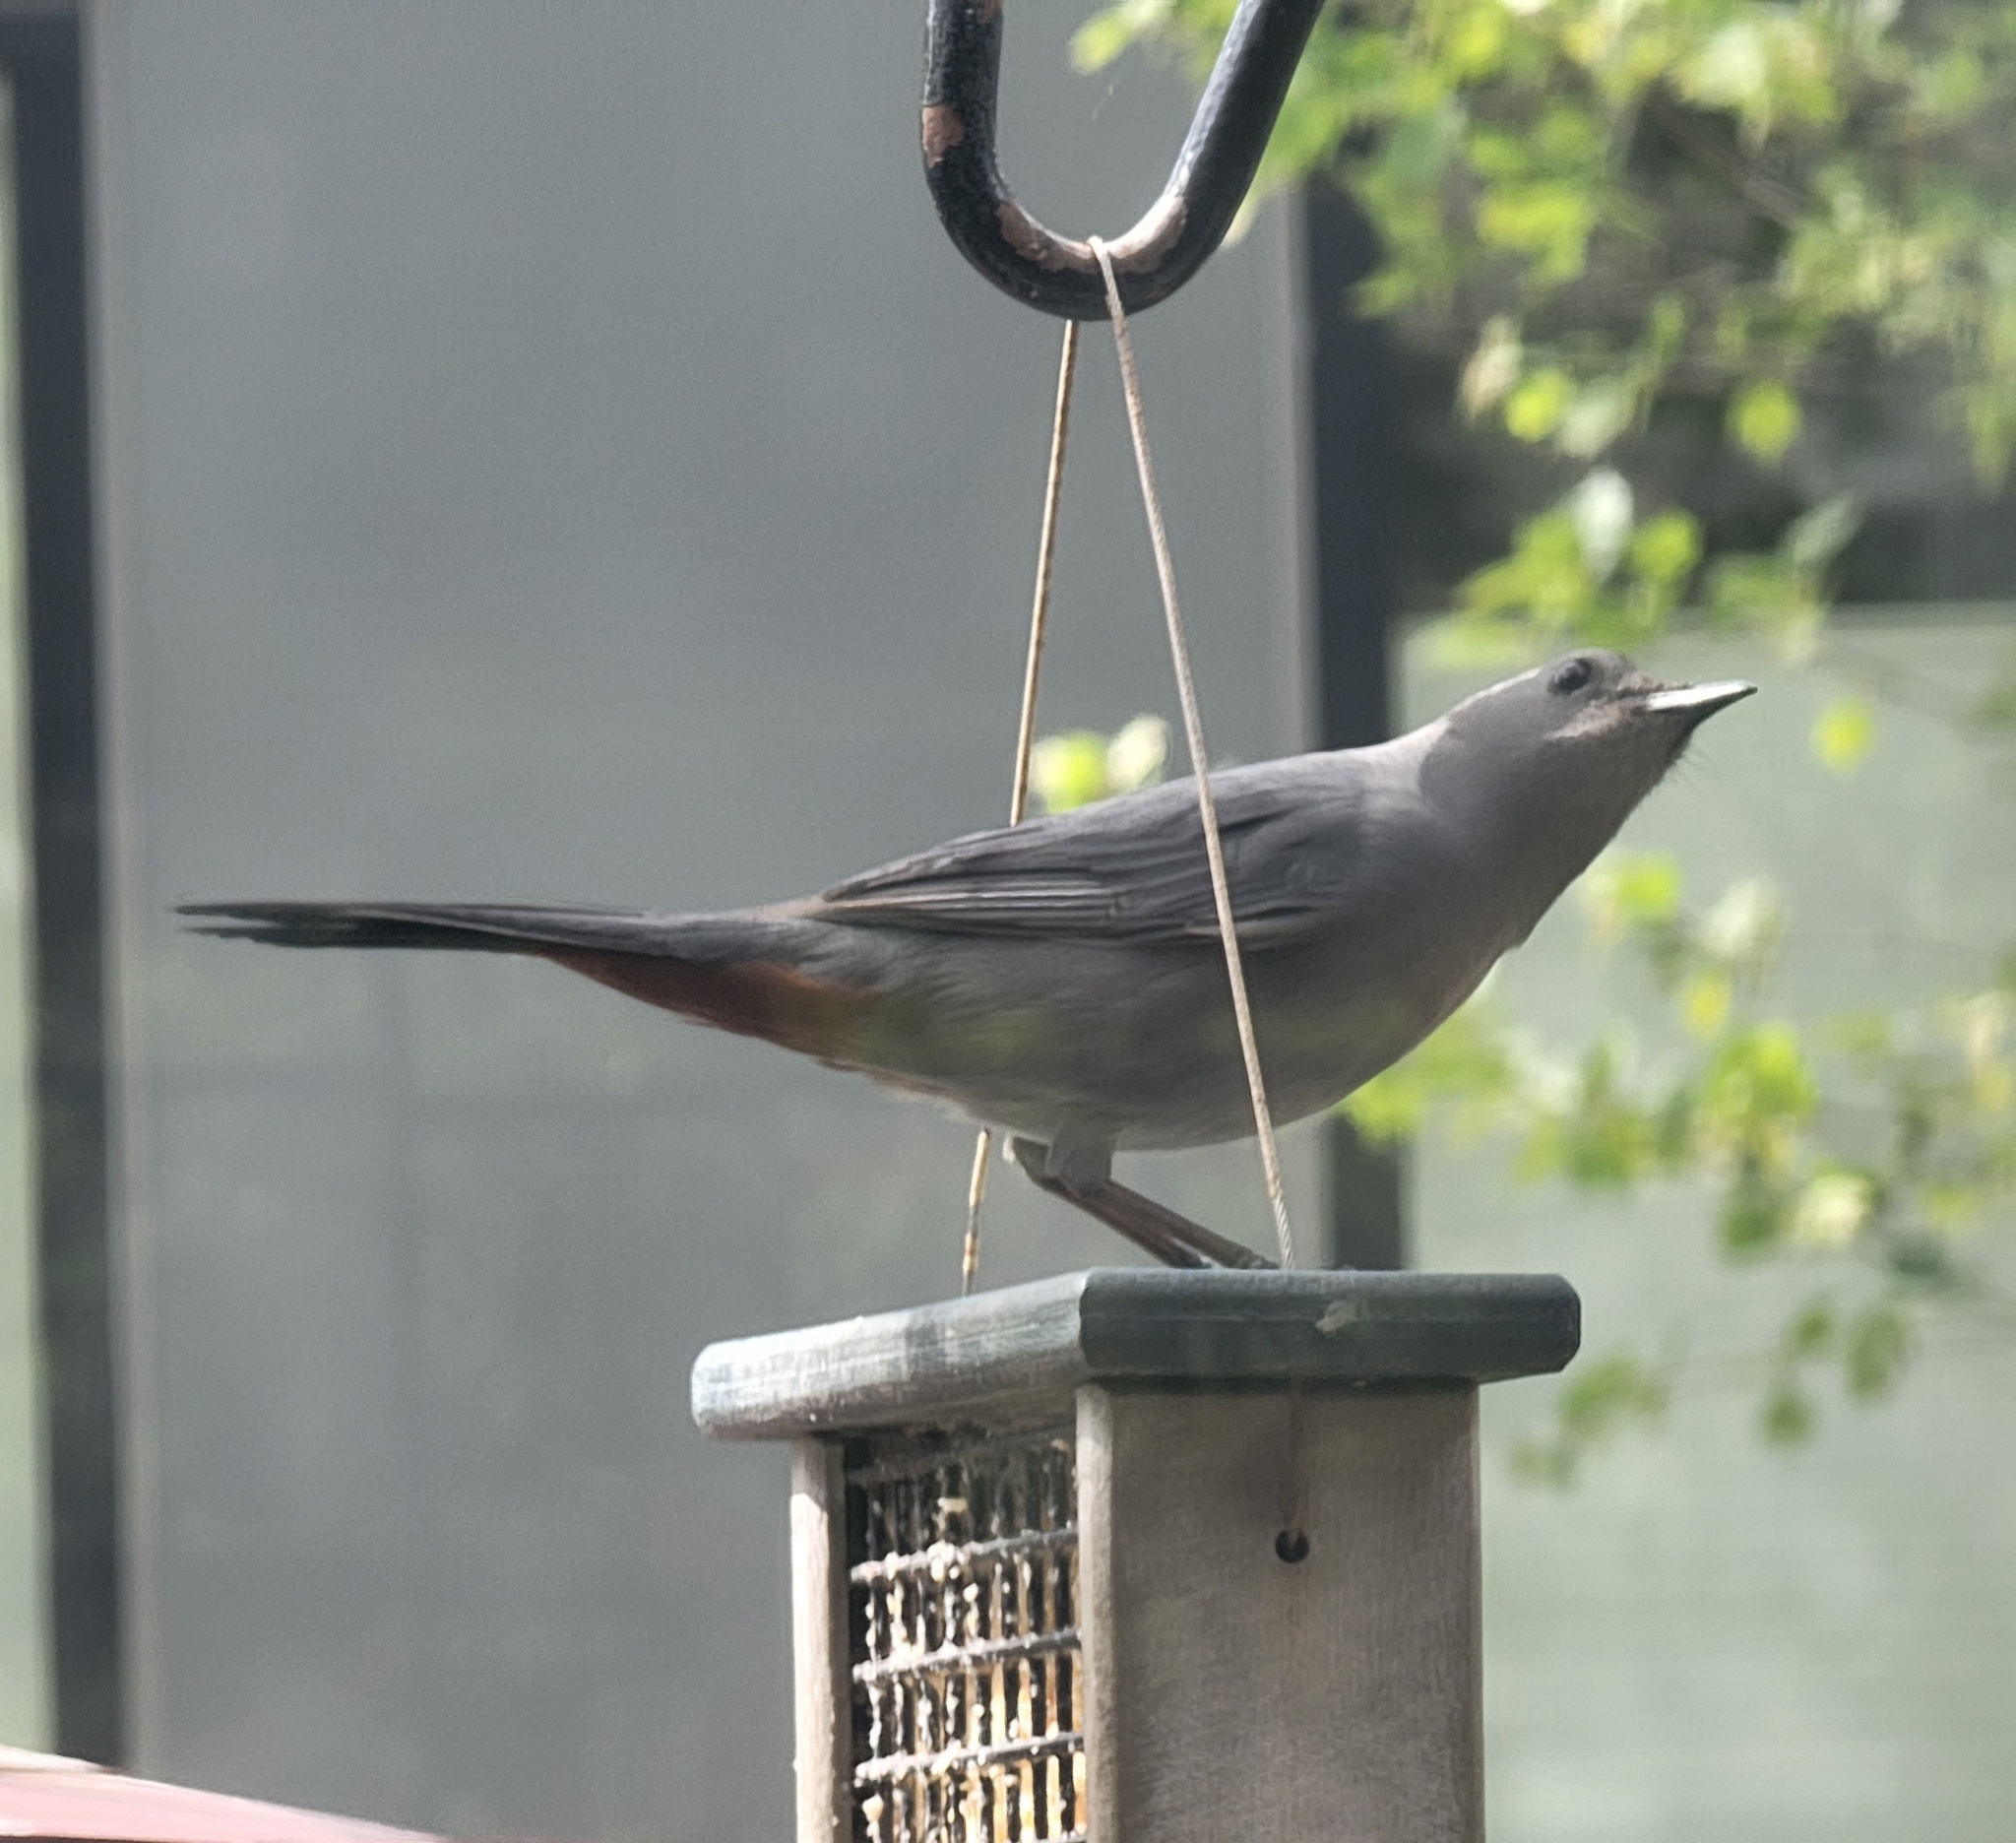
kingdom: Animalia
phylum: Chordata
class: Aves
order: Passeriformes
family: Mimidae
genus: Dumetella
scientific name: Dumetella carolinensis
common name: Gray catbird
